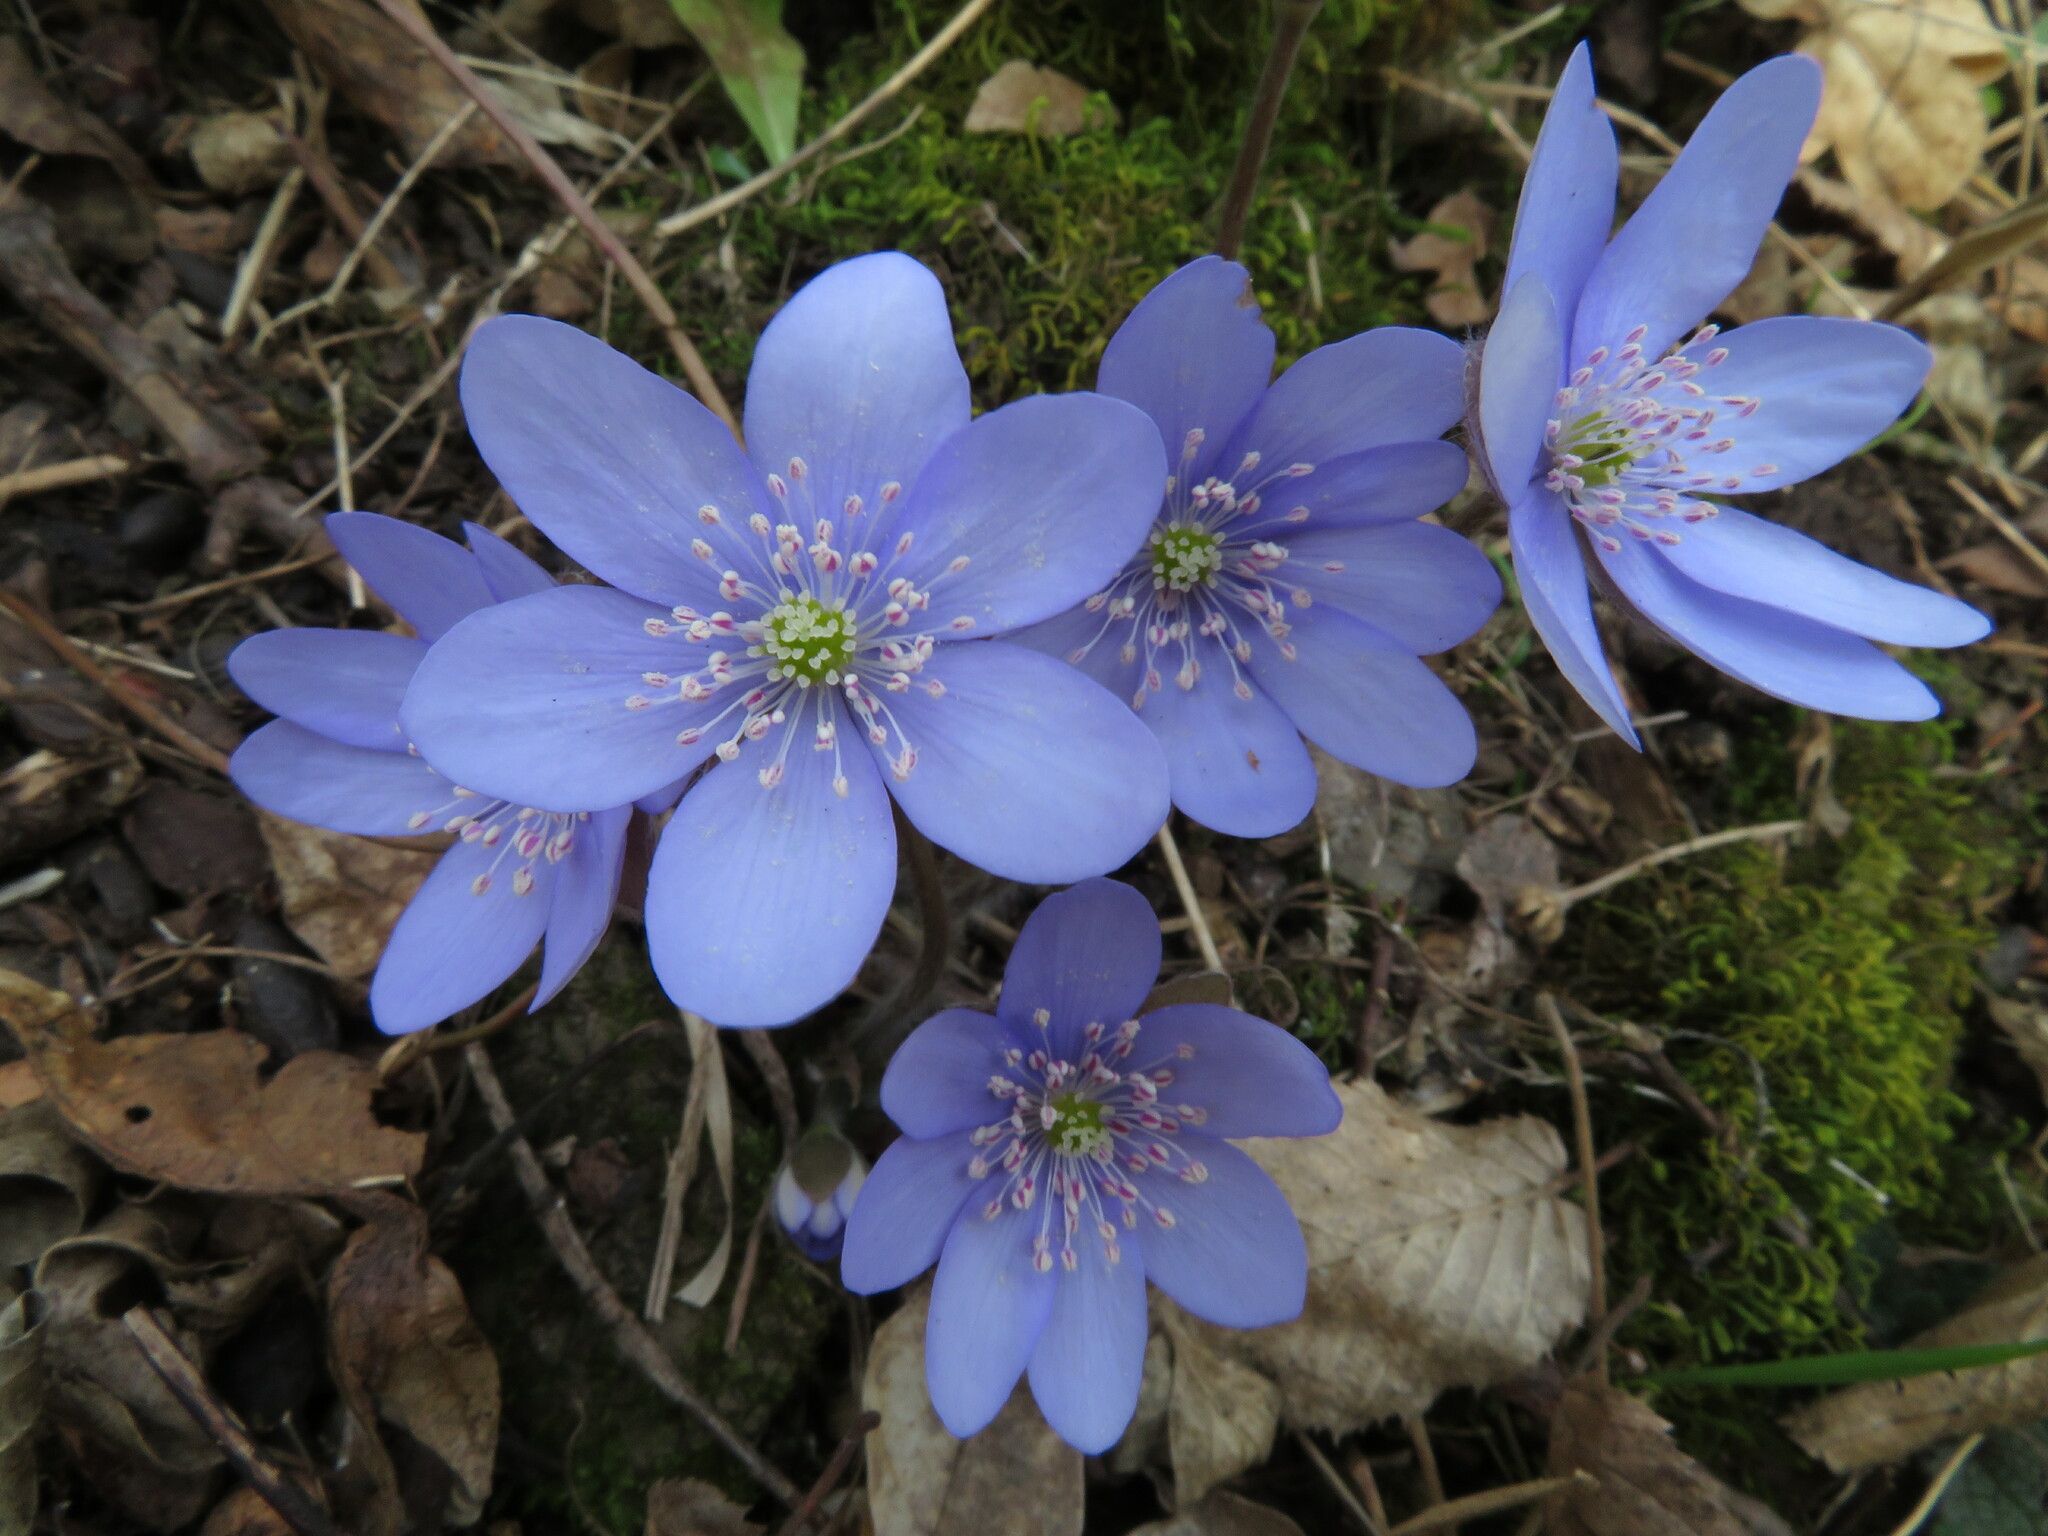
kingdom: Plantae
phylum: Tracheophyta
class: Magnoliopsida
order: Ranunculales
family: Ranunculaceae
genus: Hepatica
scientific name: Hepatica nobilis
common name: Liverleaf
